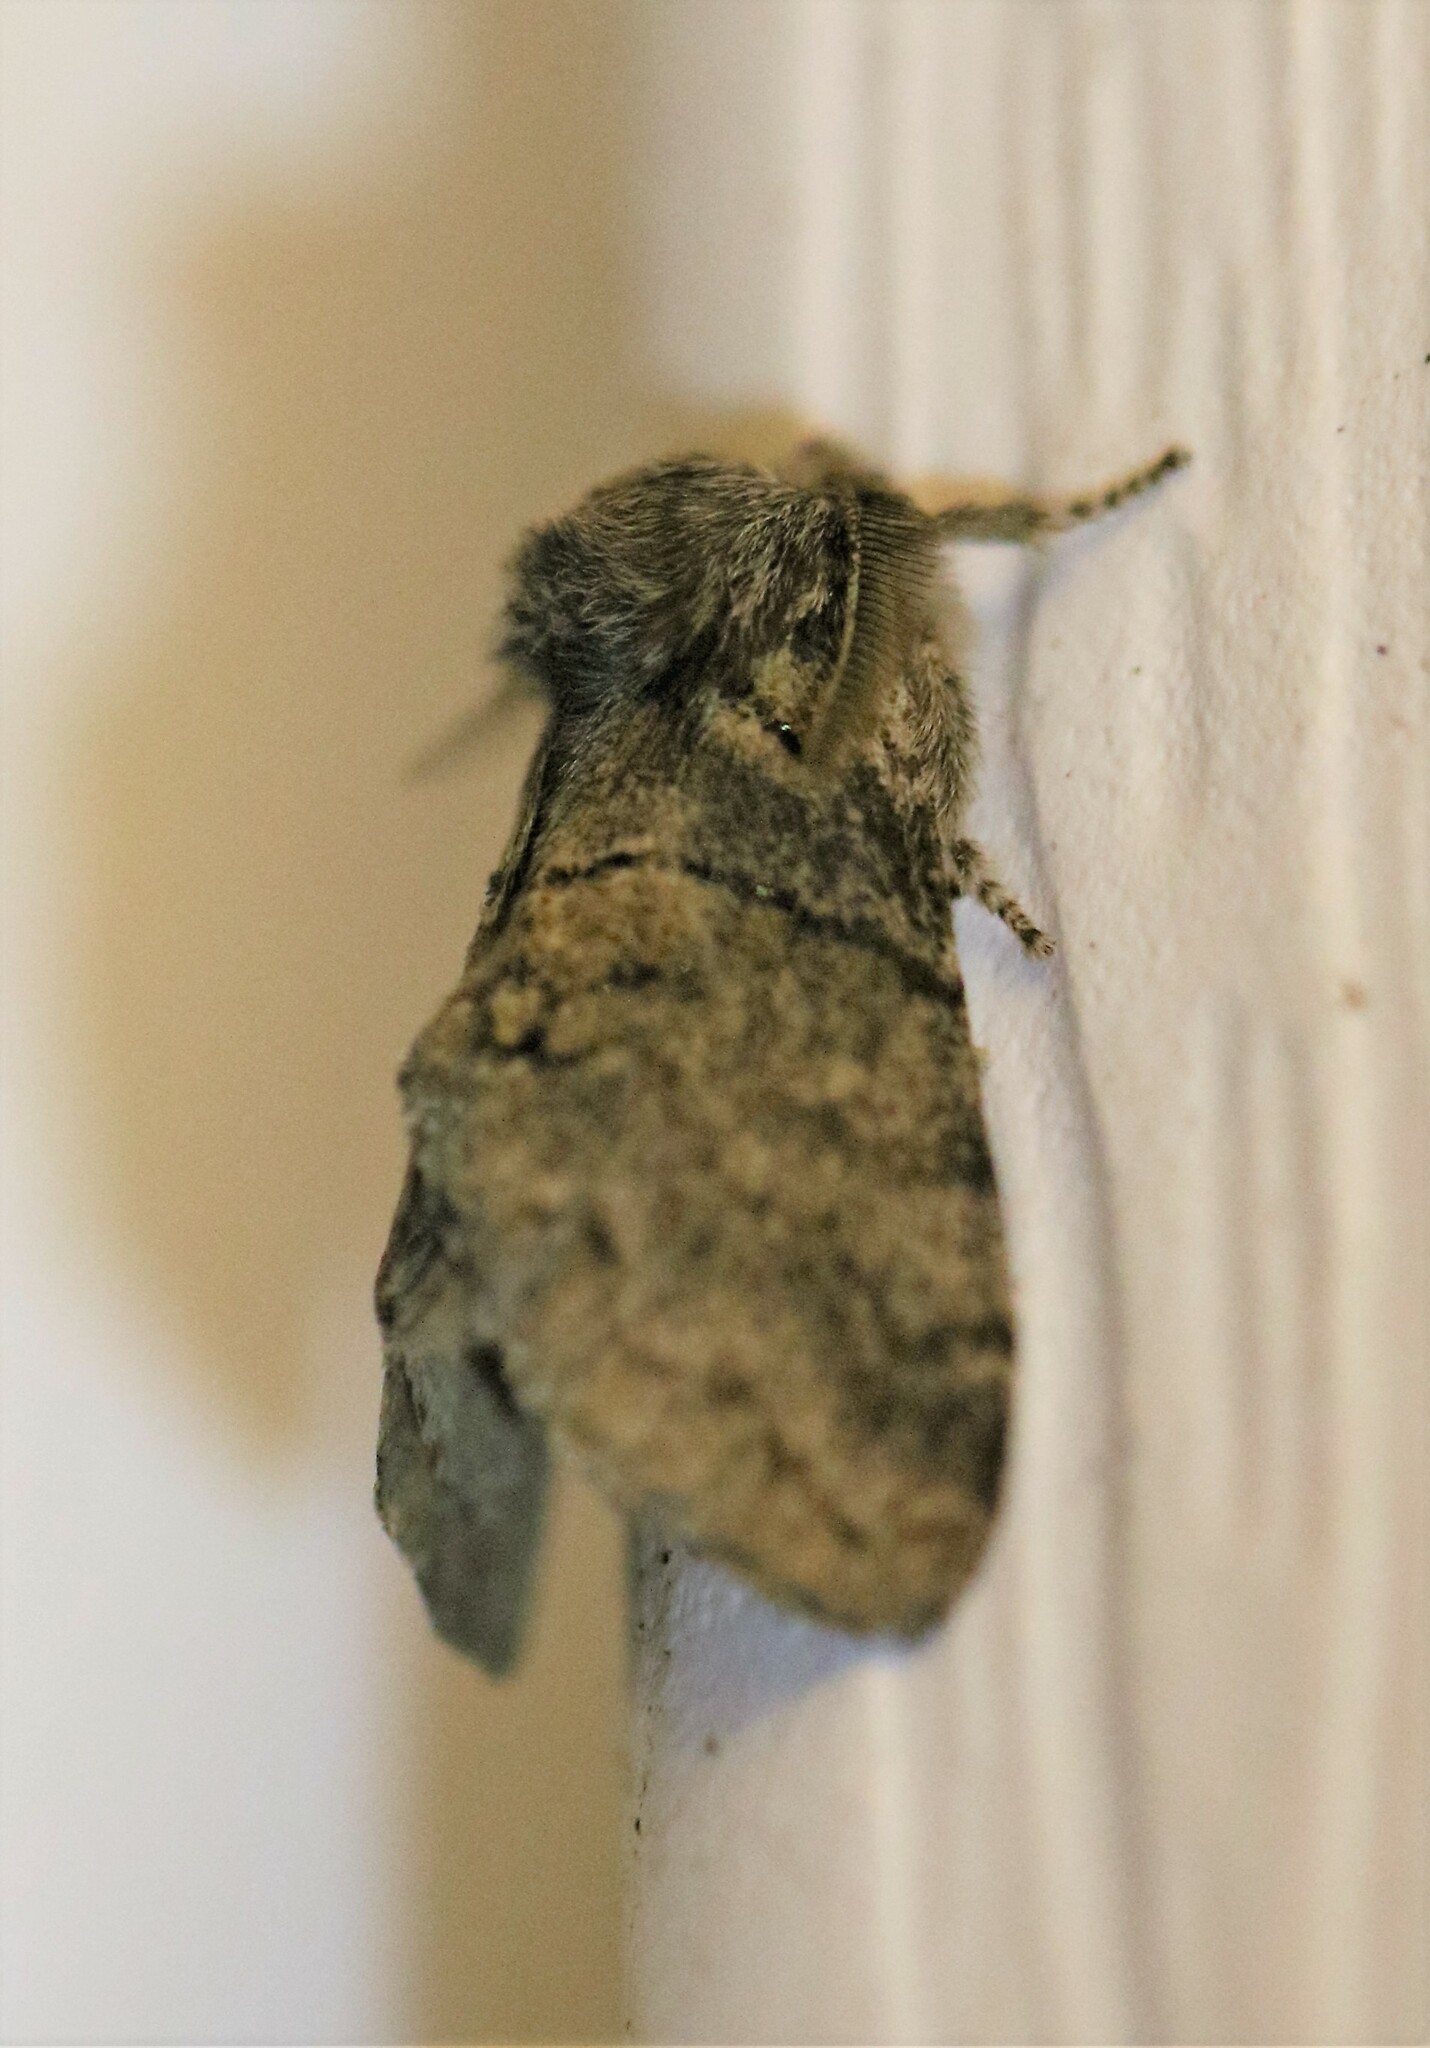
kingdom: Animalia
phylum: Arthropoda
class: Insecta
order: Lepidoptera
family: Notodontidae
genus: Gluphisia
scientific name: Gluphisia septentrionis
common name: Common gluphisia
